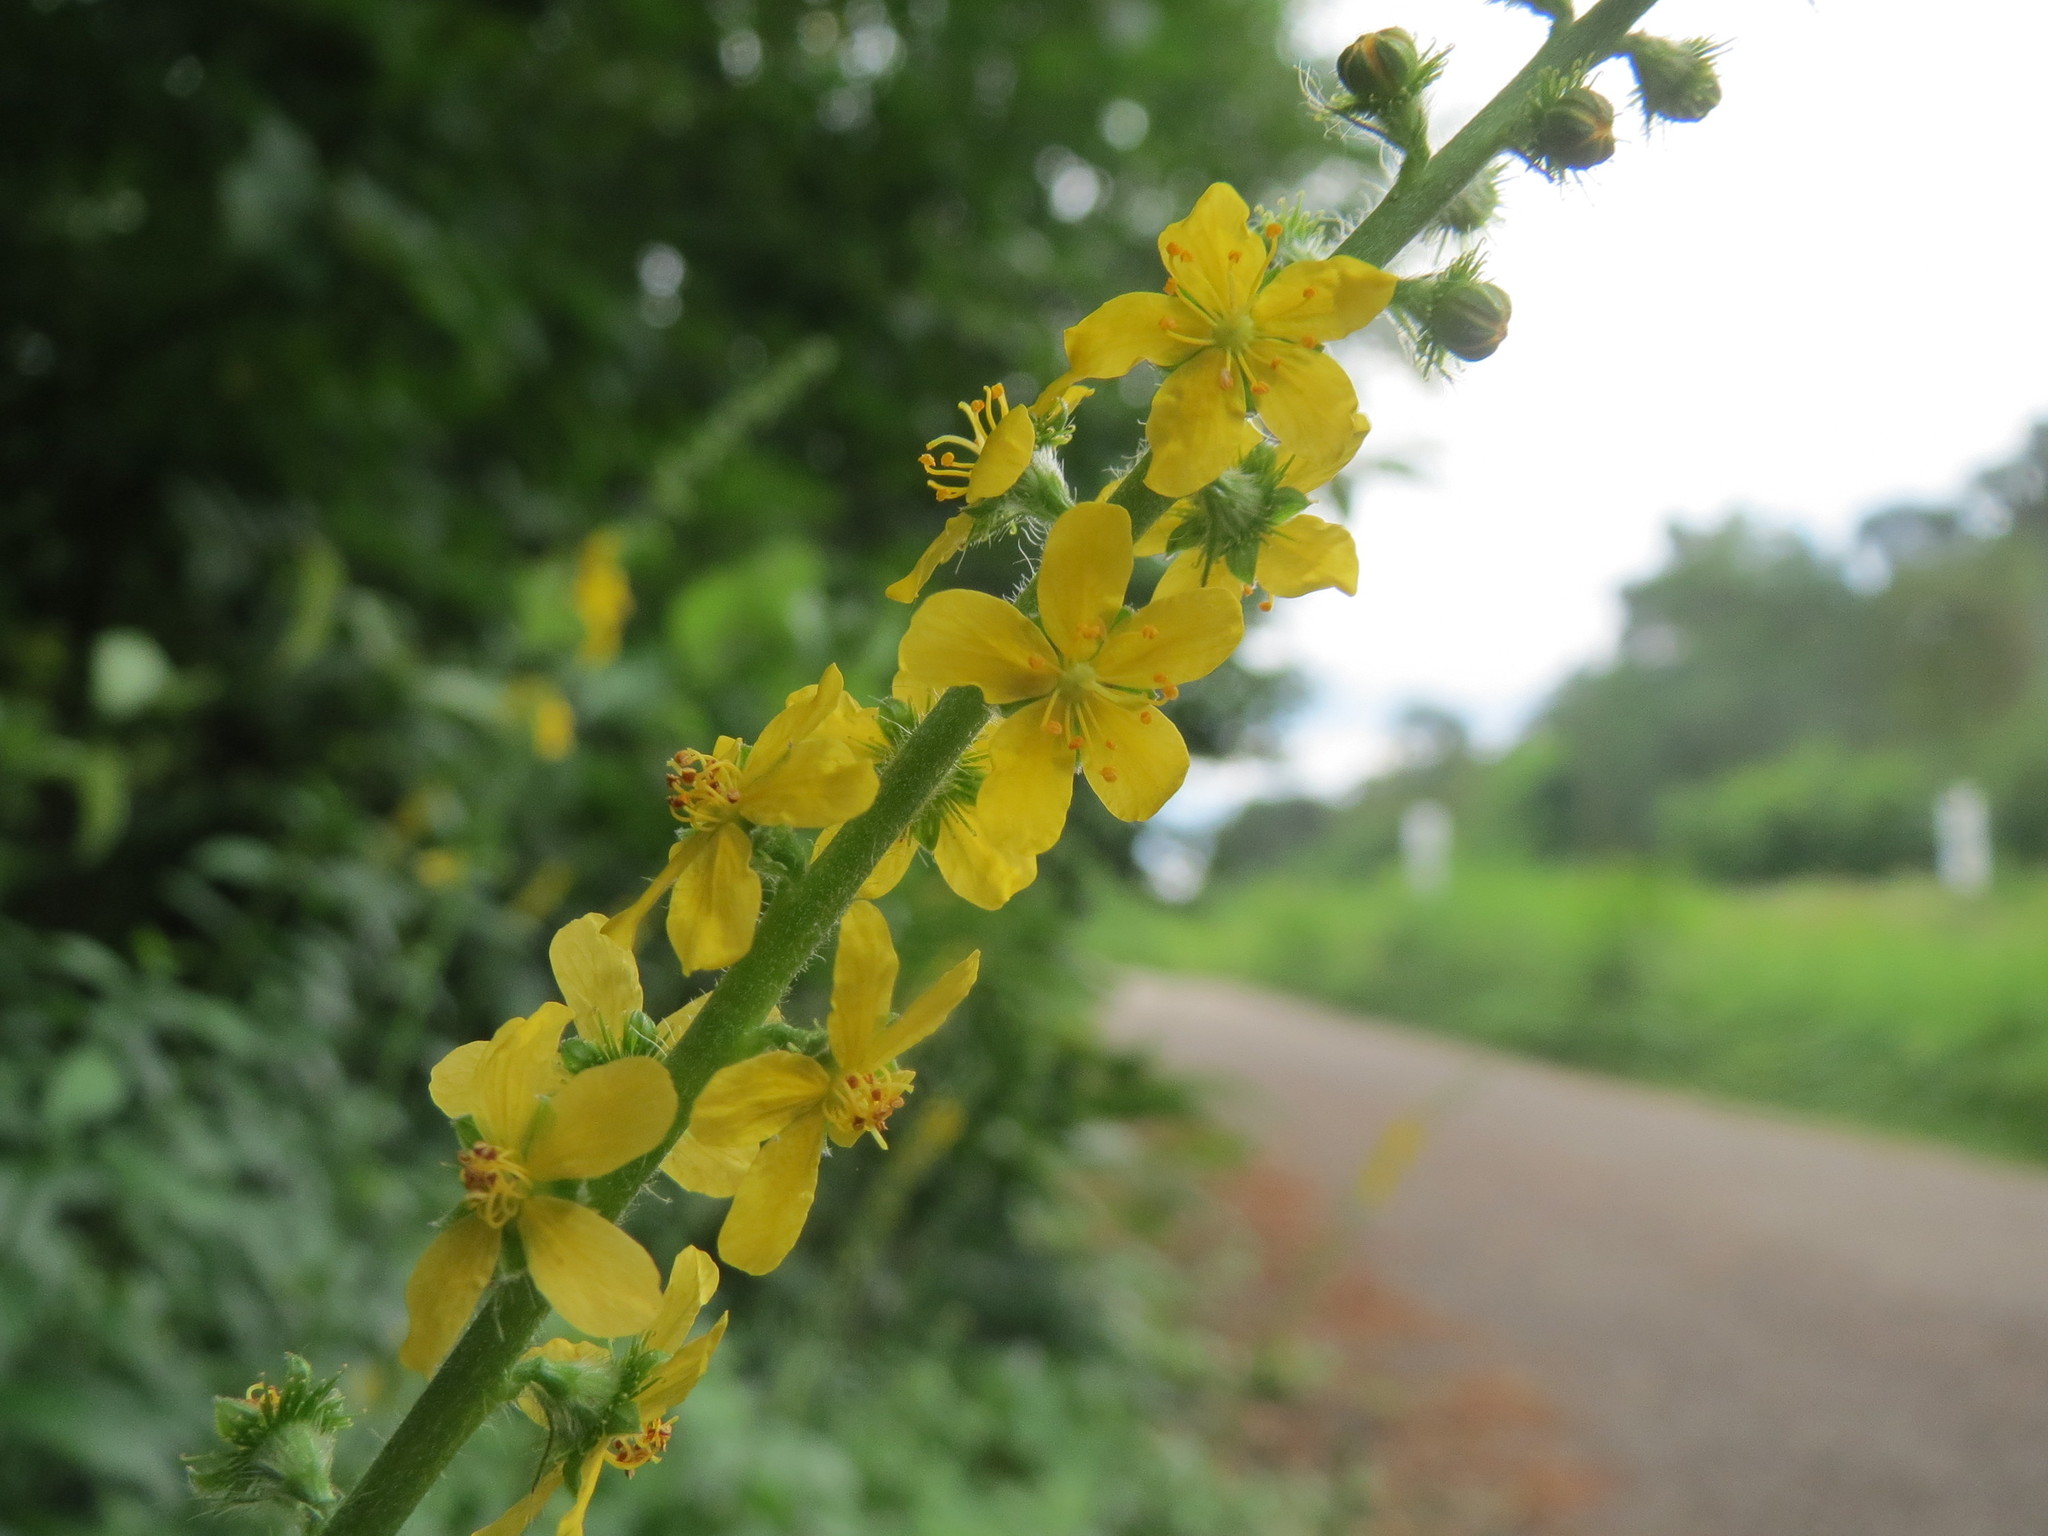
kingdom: Plantae
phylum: Tracheophyta
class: Magnoliopsida
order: Rosales
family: Rosaceae
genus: Agrimonia
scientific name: Agrimonia eupatoria
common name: Agrimony
